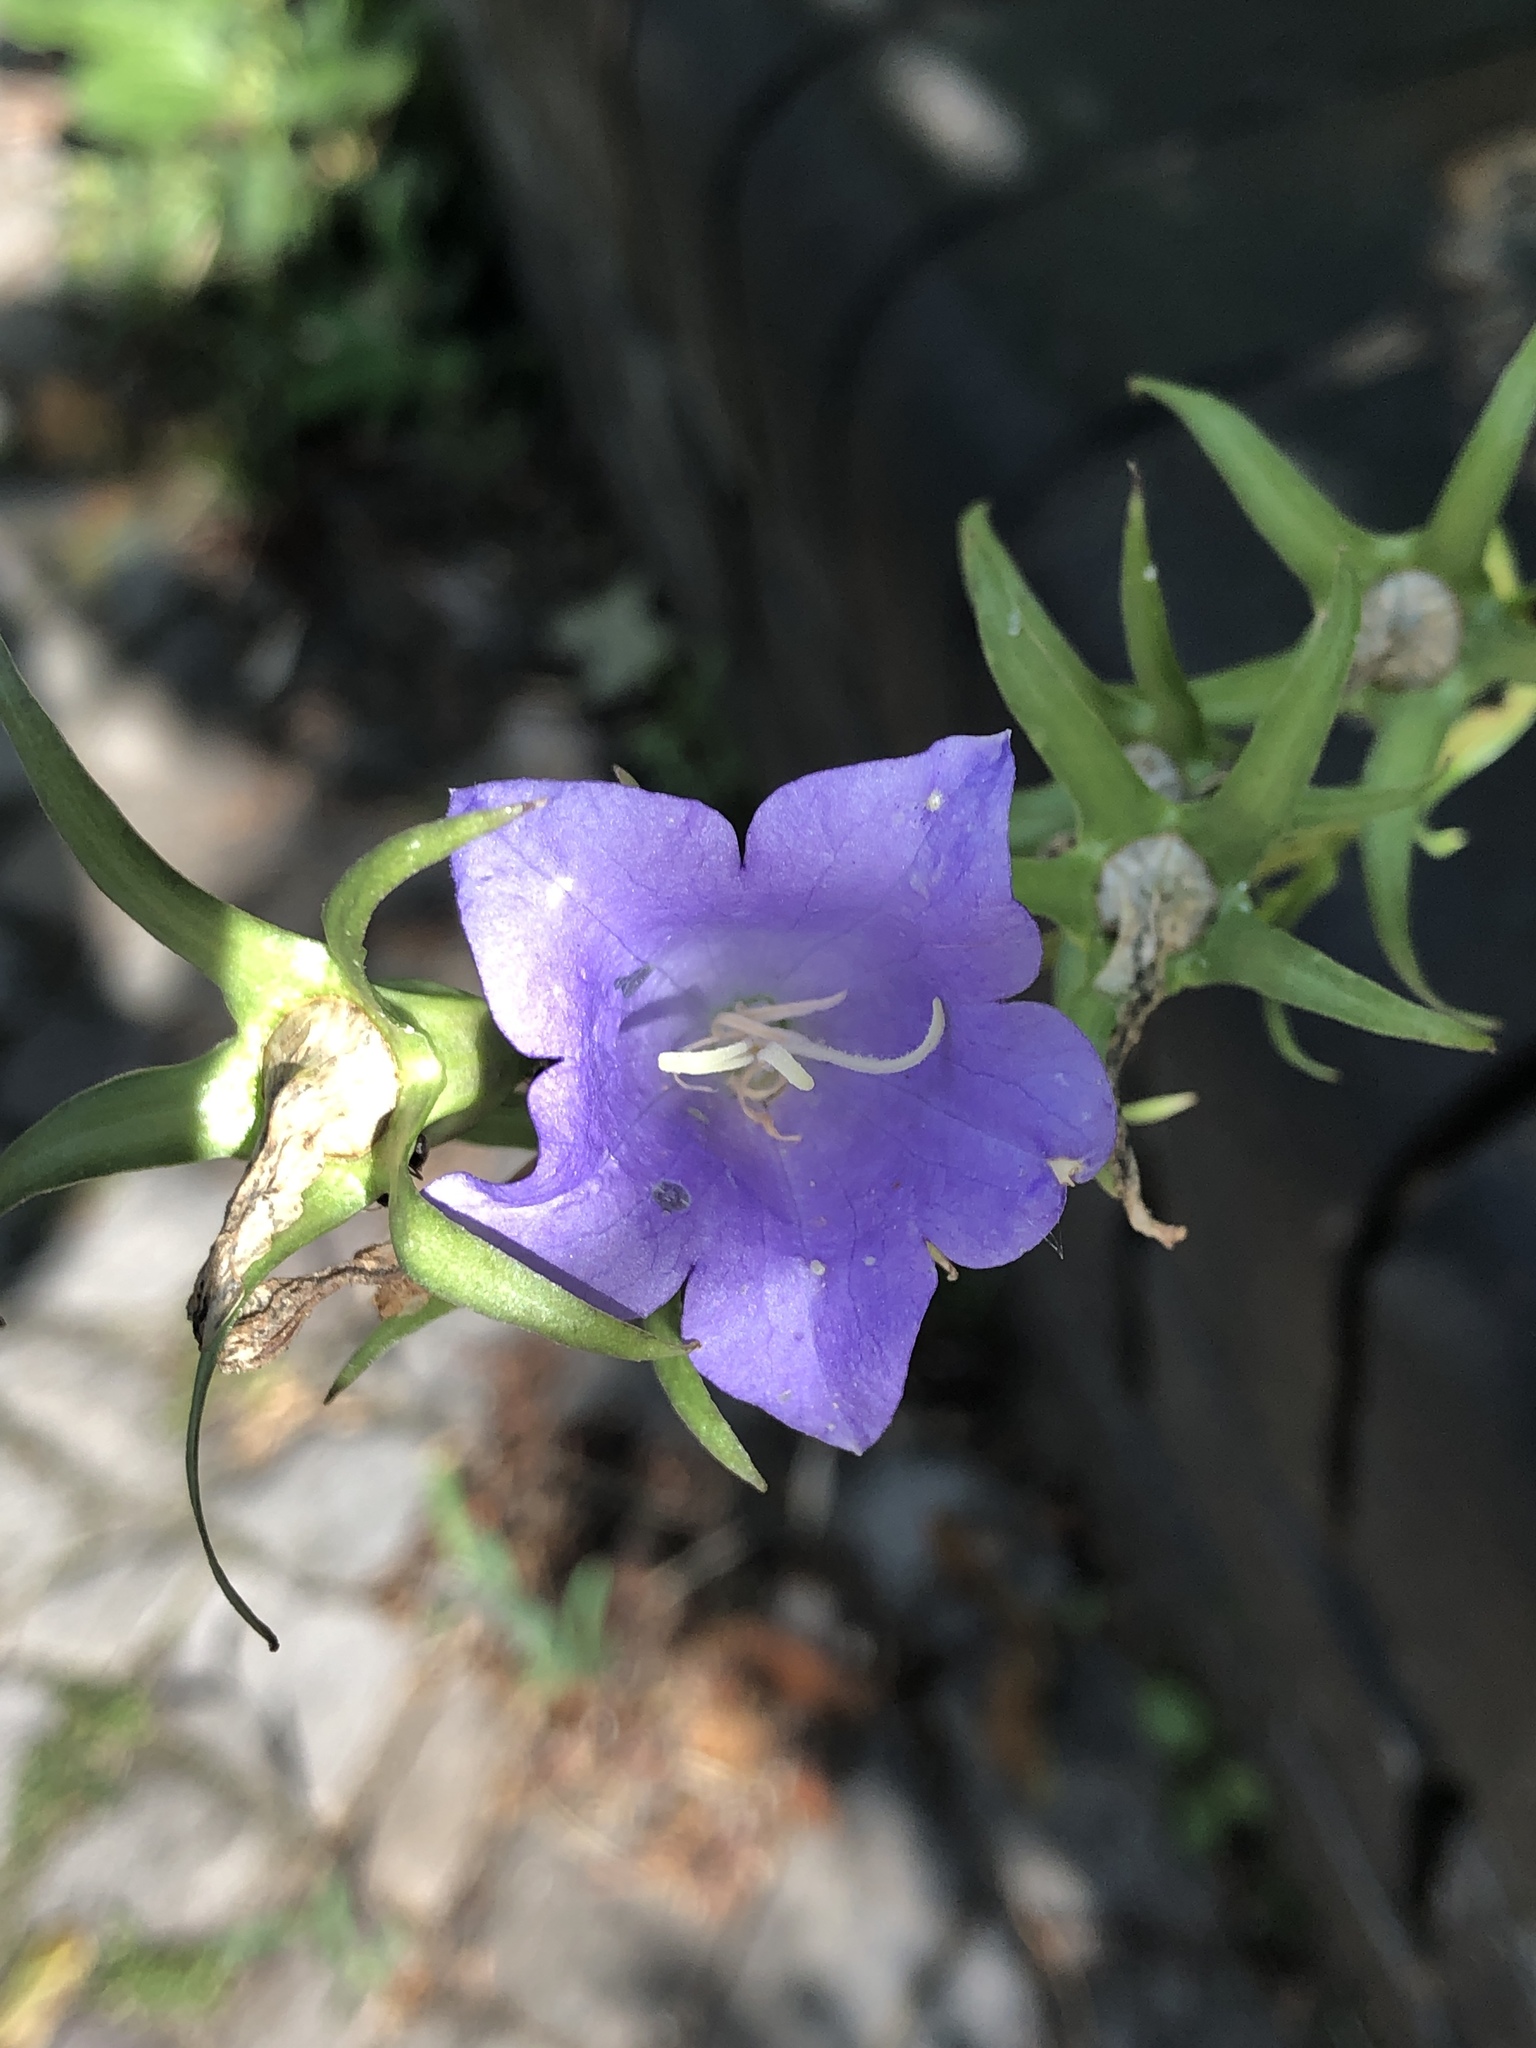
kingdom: Plantae
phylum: Tracheophyta
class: Magnoliopsida
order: Asterales
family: Campanulaceae
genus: Campanula
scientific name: Campanula persicifolia
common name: Peach-leaved bellflower
